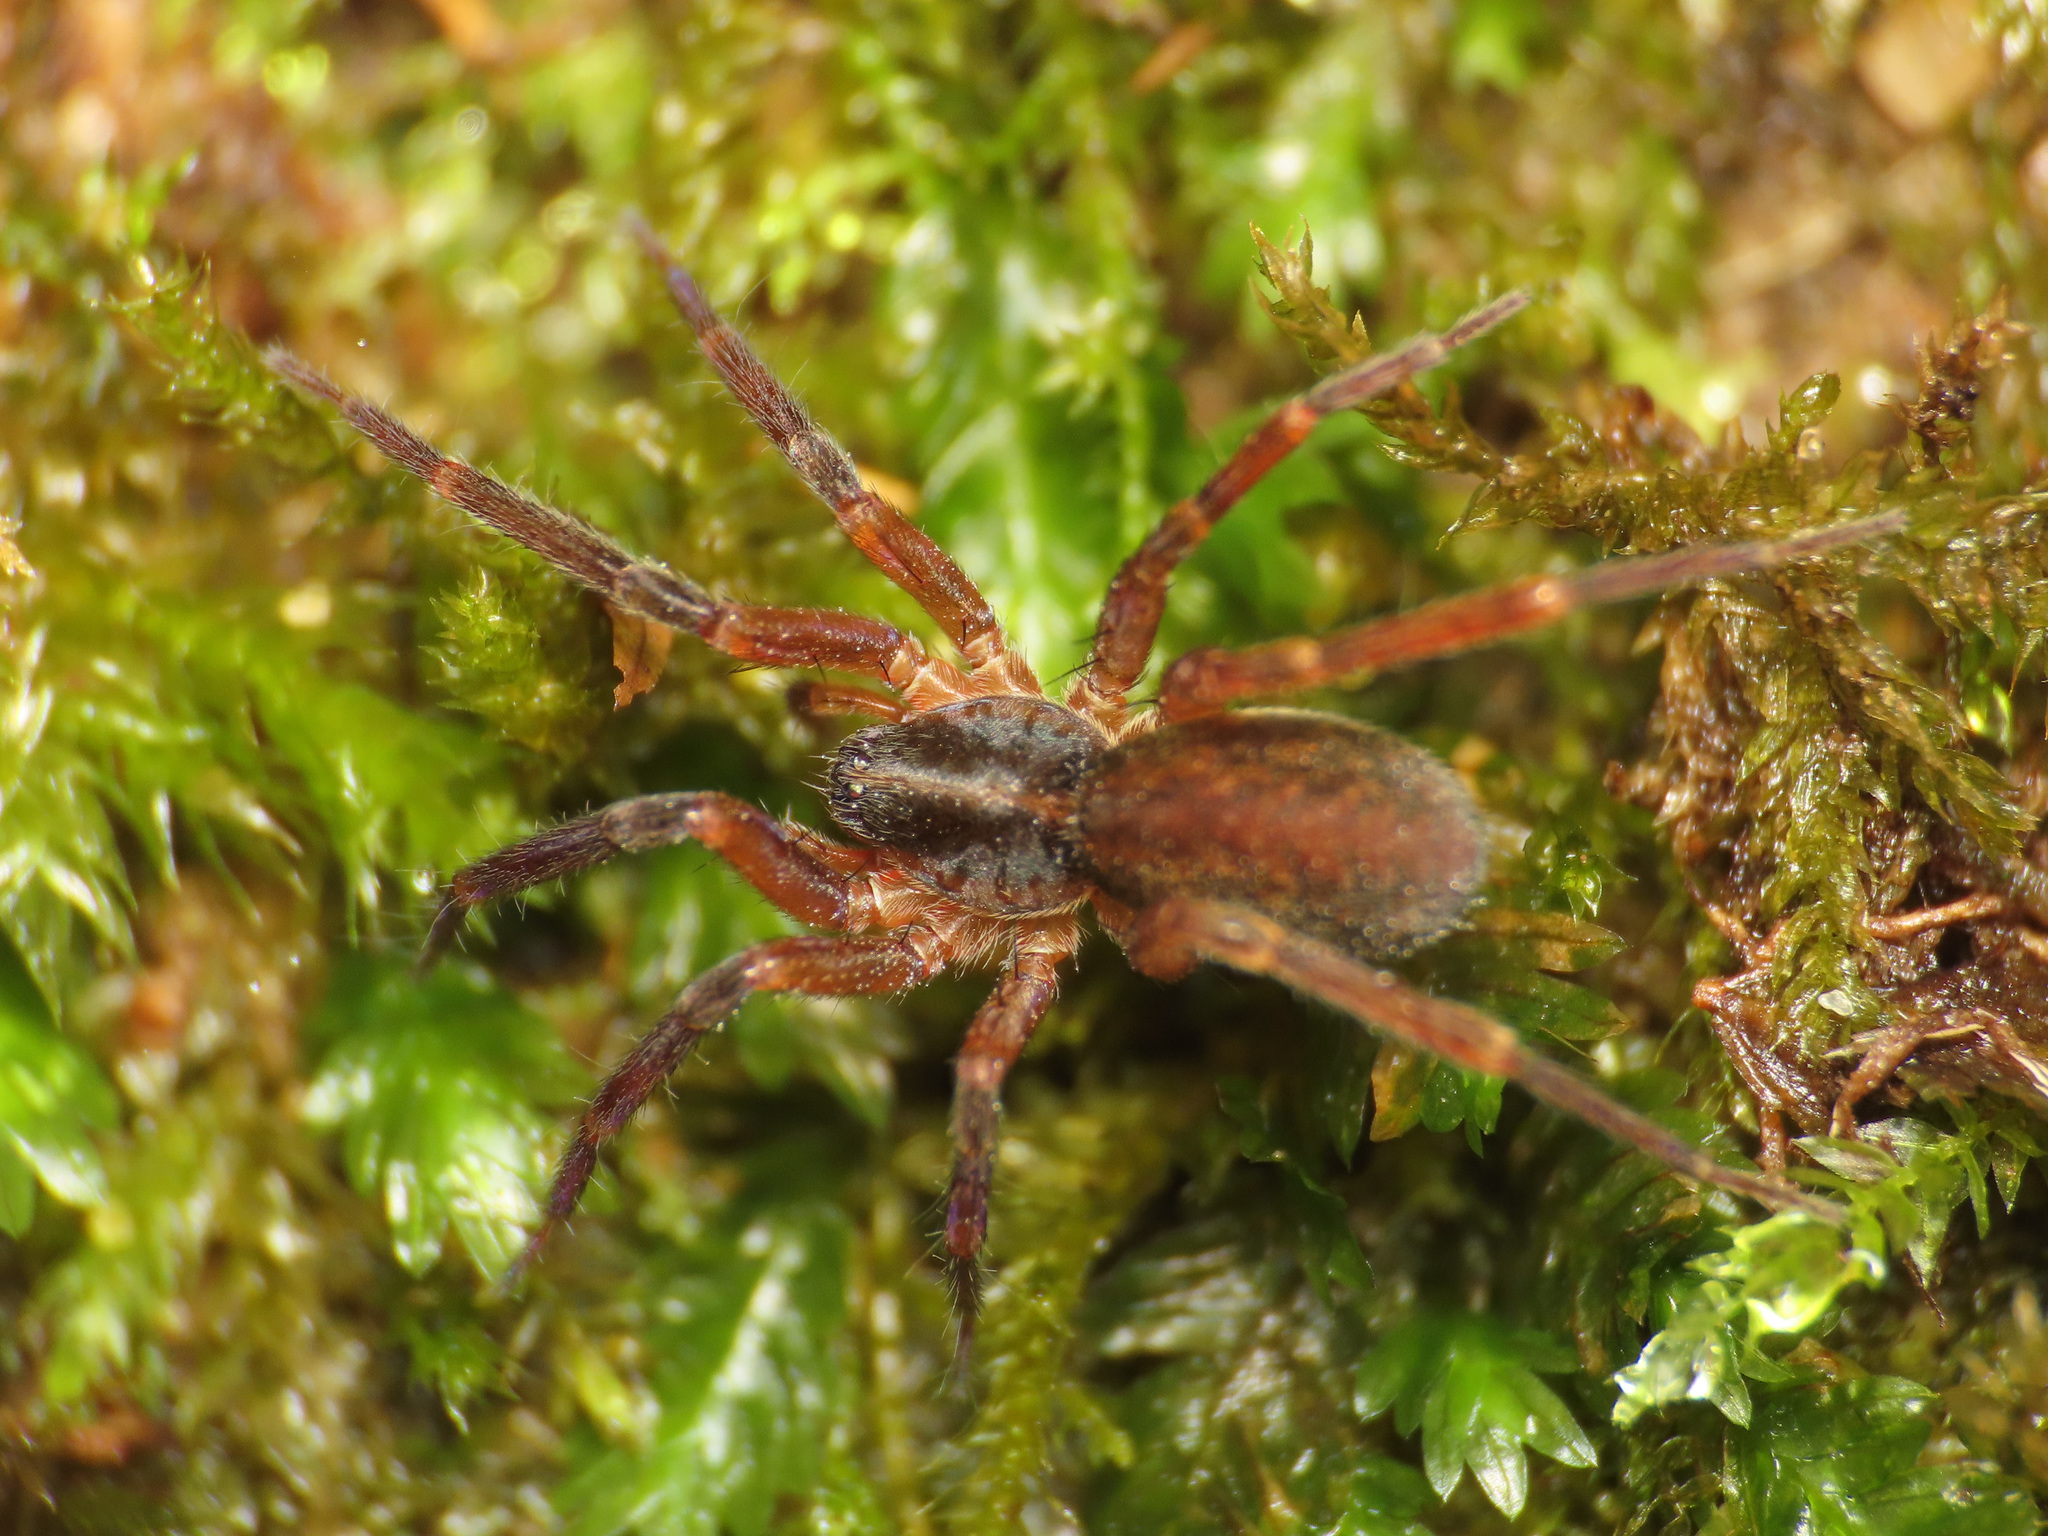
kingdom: Animalia
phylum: Arthropoda
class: Arachnida
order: Araneae
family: Liocranidae
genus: Scotina
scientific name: Scotina celans
